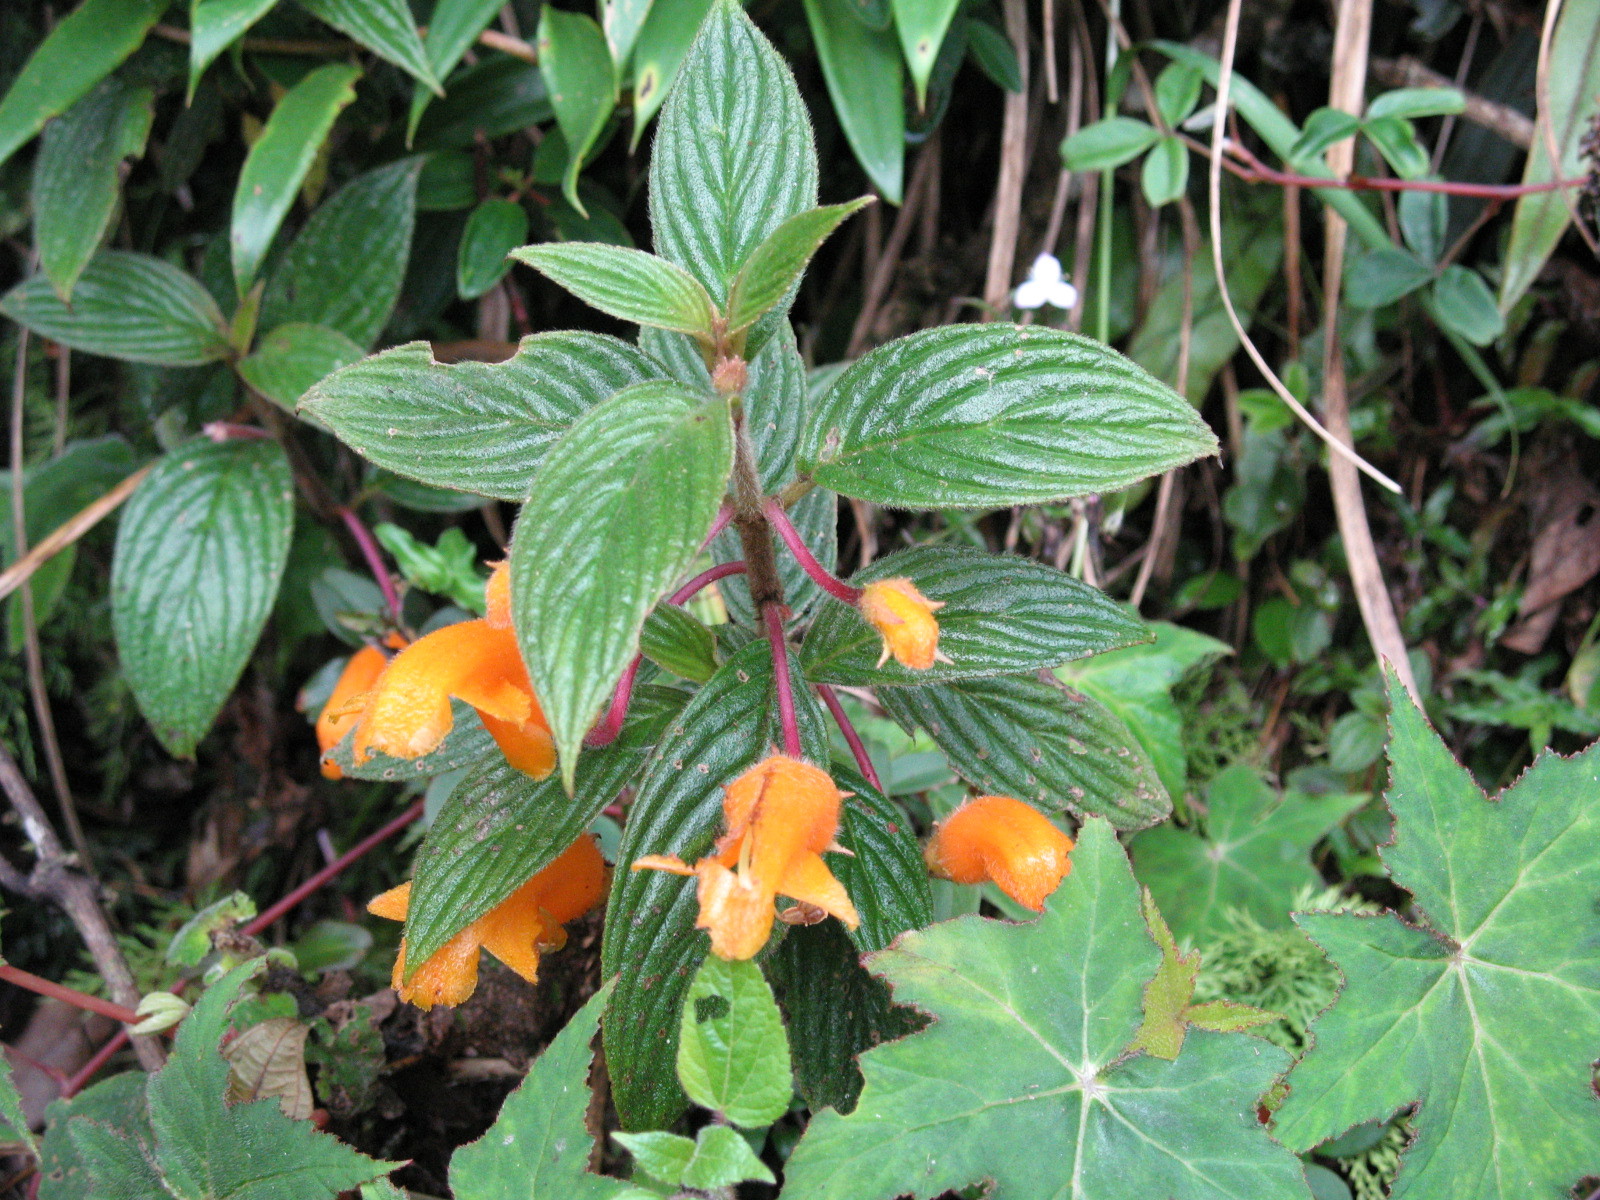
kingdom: Plantae
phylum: Tracheophyta
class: Magnoliopsida
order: Lamiales
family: Gesneriaceae
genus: Columnea
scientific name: Columnea strigosa
